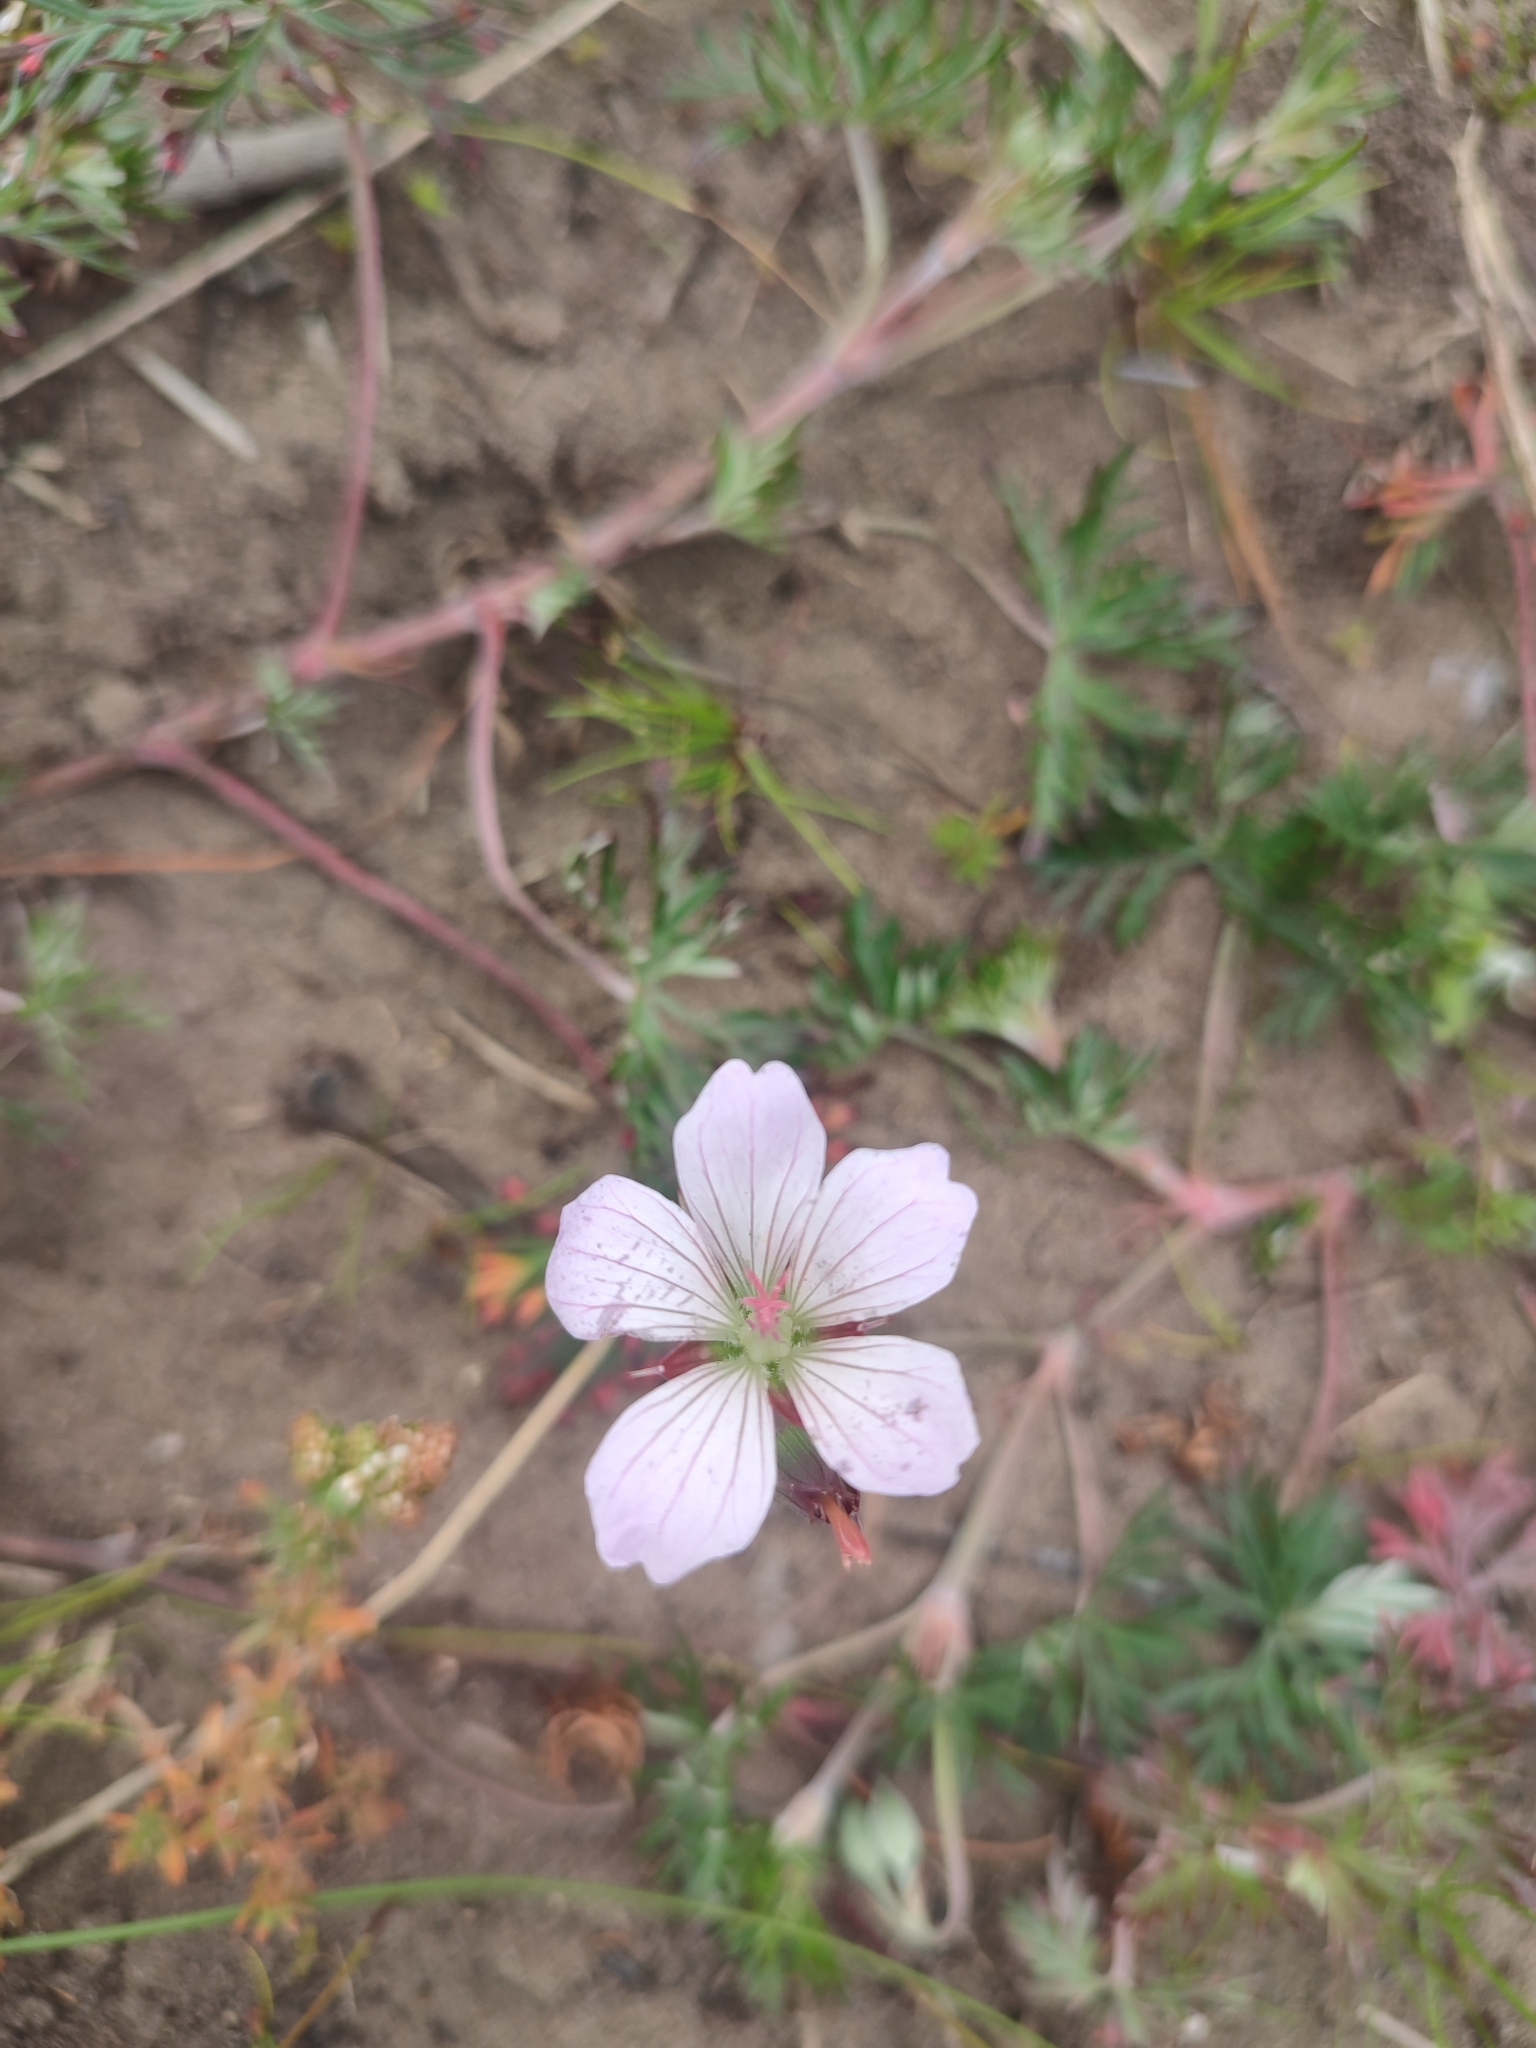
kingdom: Plantae
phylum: Tracheophyta
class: Magnoliopsida
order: Geraniales
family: Geraniaceae
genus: Geranium
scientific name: Geranium incanum
